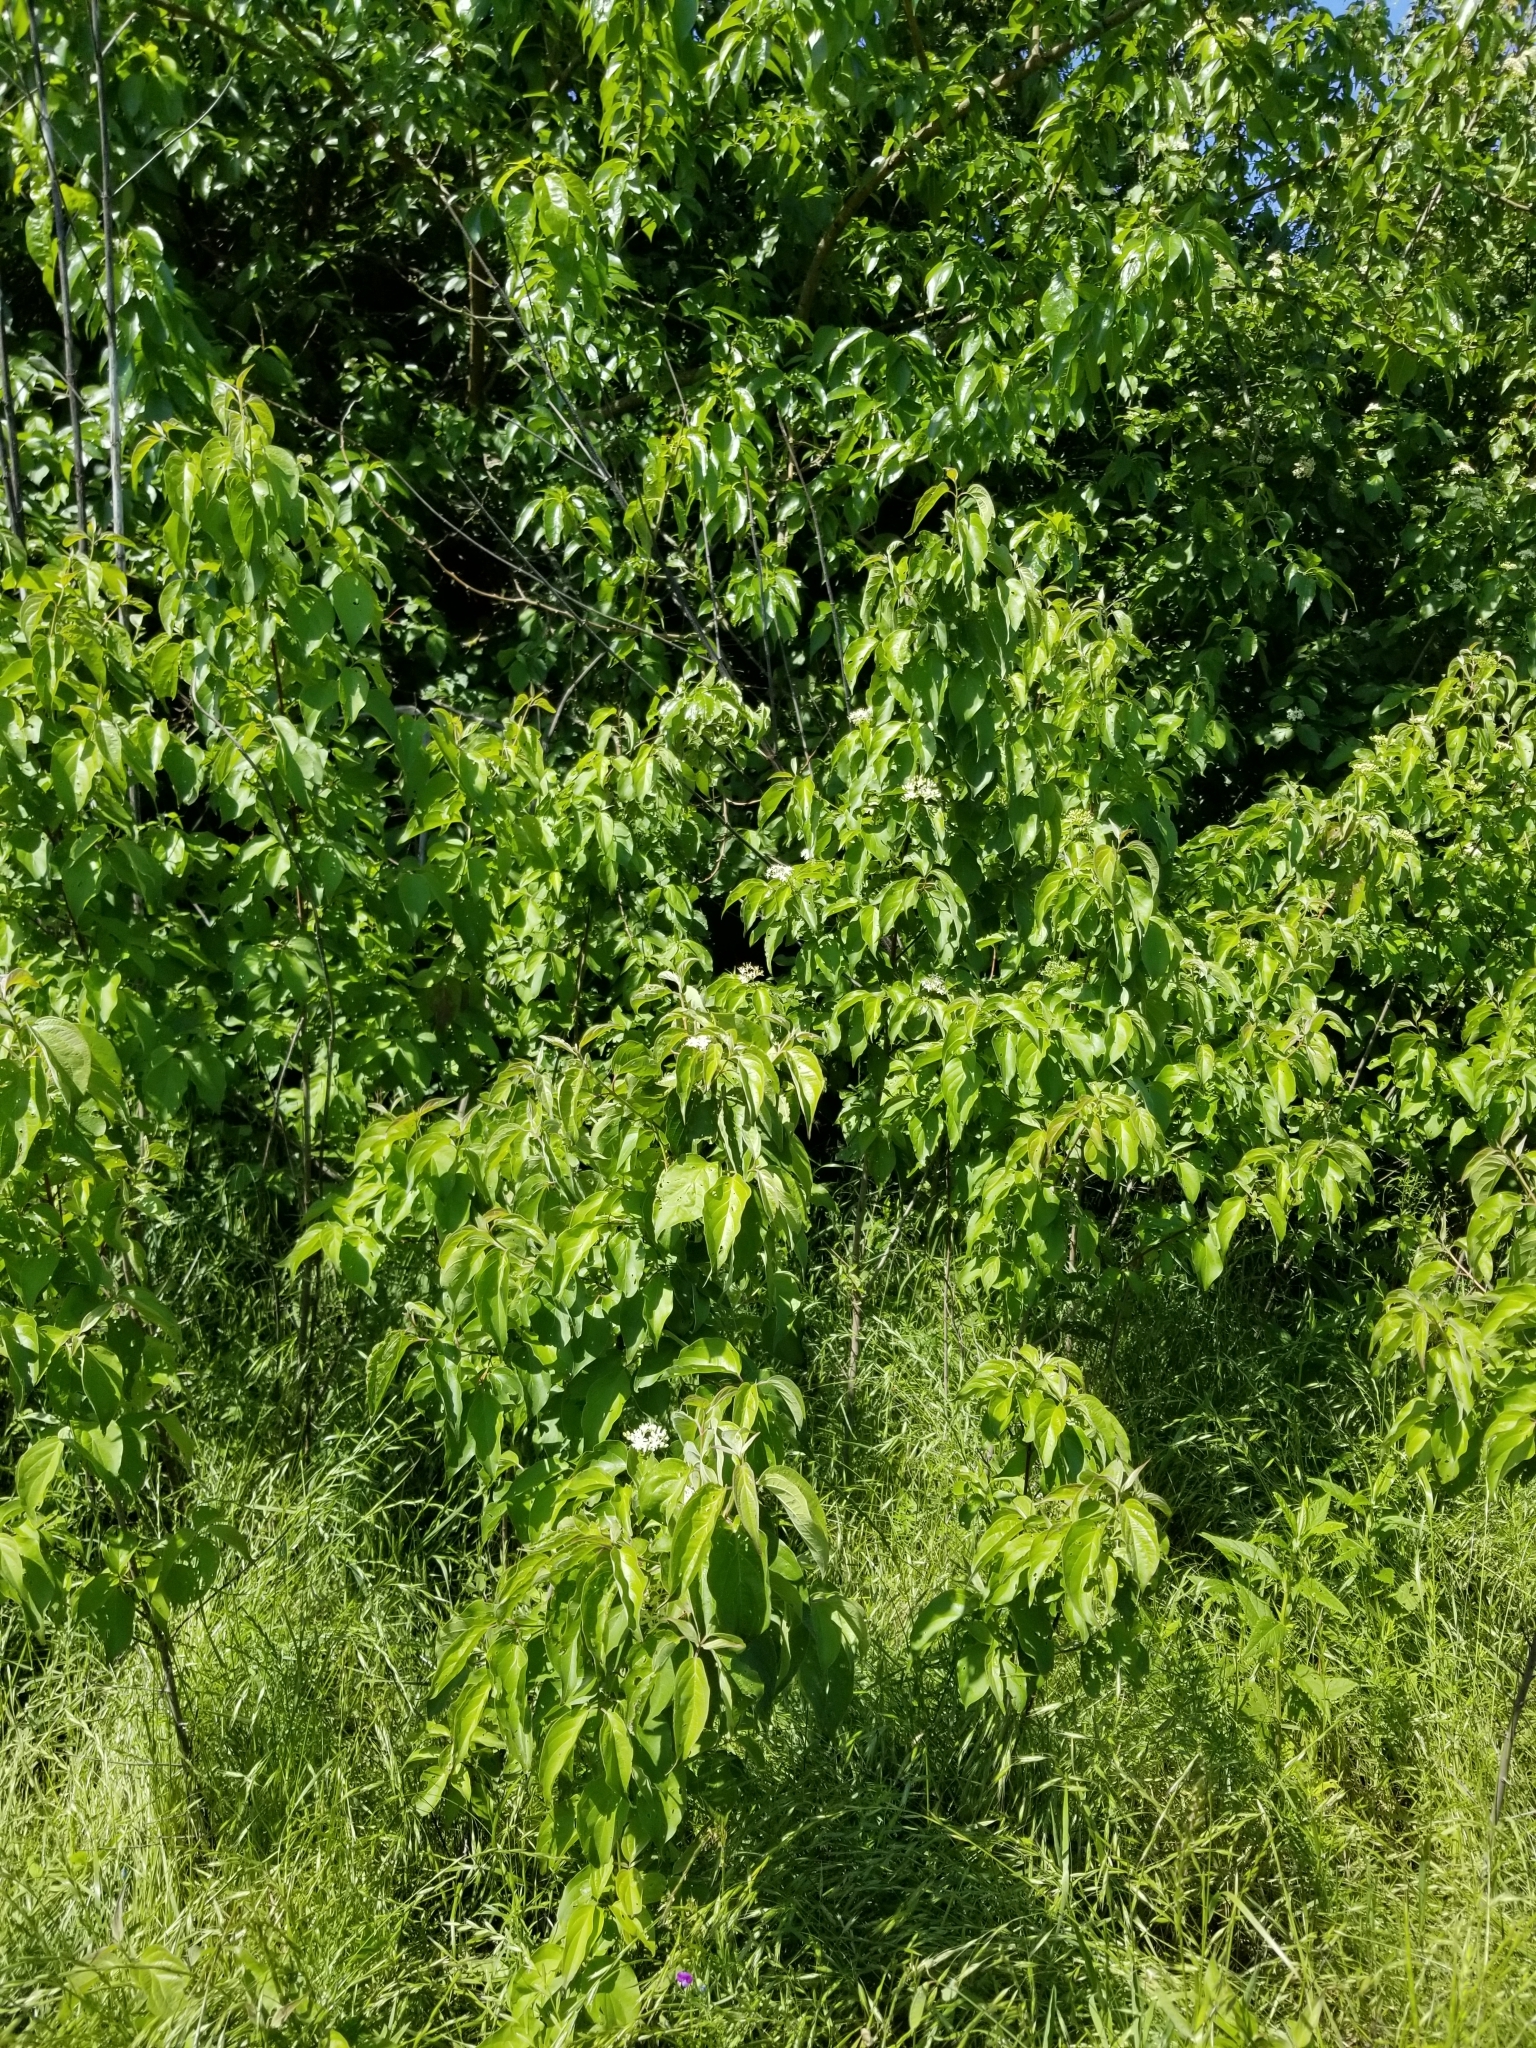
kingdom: Plantae
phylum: Tracheophyta
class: Magnoliopsida
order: Cornales
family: Cornaceae
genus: Cornus
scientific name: Cornus drummondii
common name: Rough-leaf dogwood
